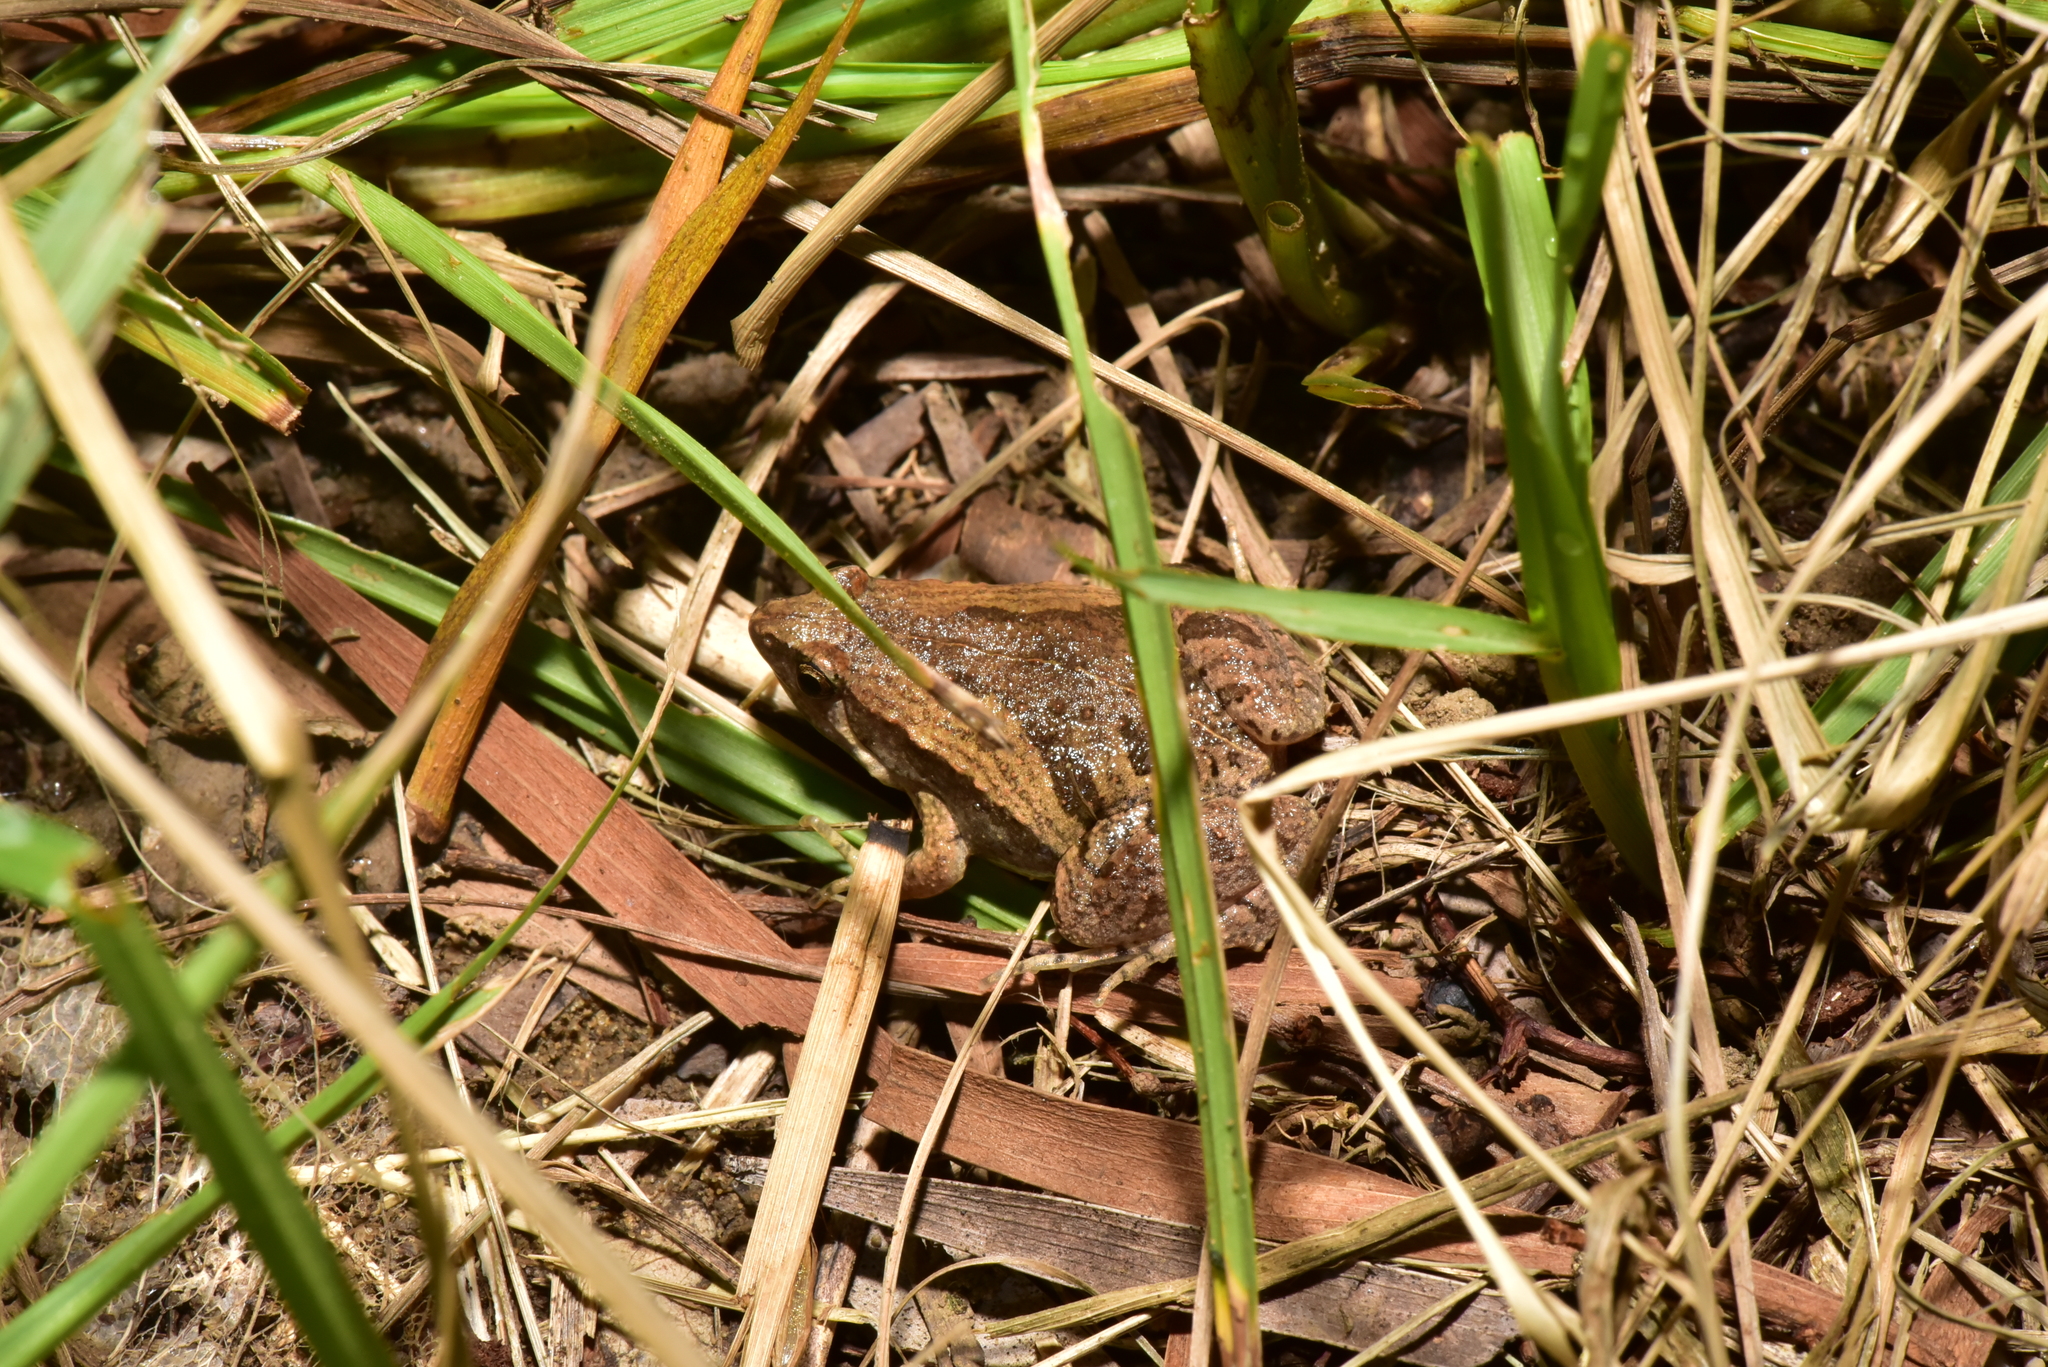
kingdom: Animalia
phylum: Chordata
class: Amphibia
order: Anura
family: Microhylidae
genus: Microhyla
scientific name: Microhyla fissipes
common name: Ornate narrow-mouthed frog
